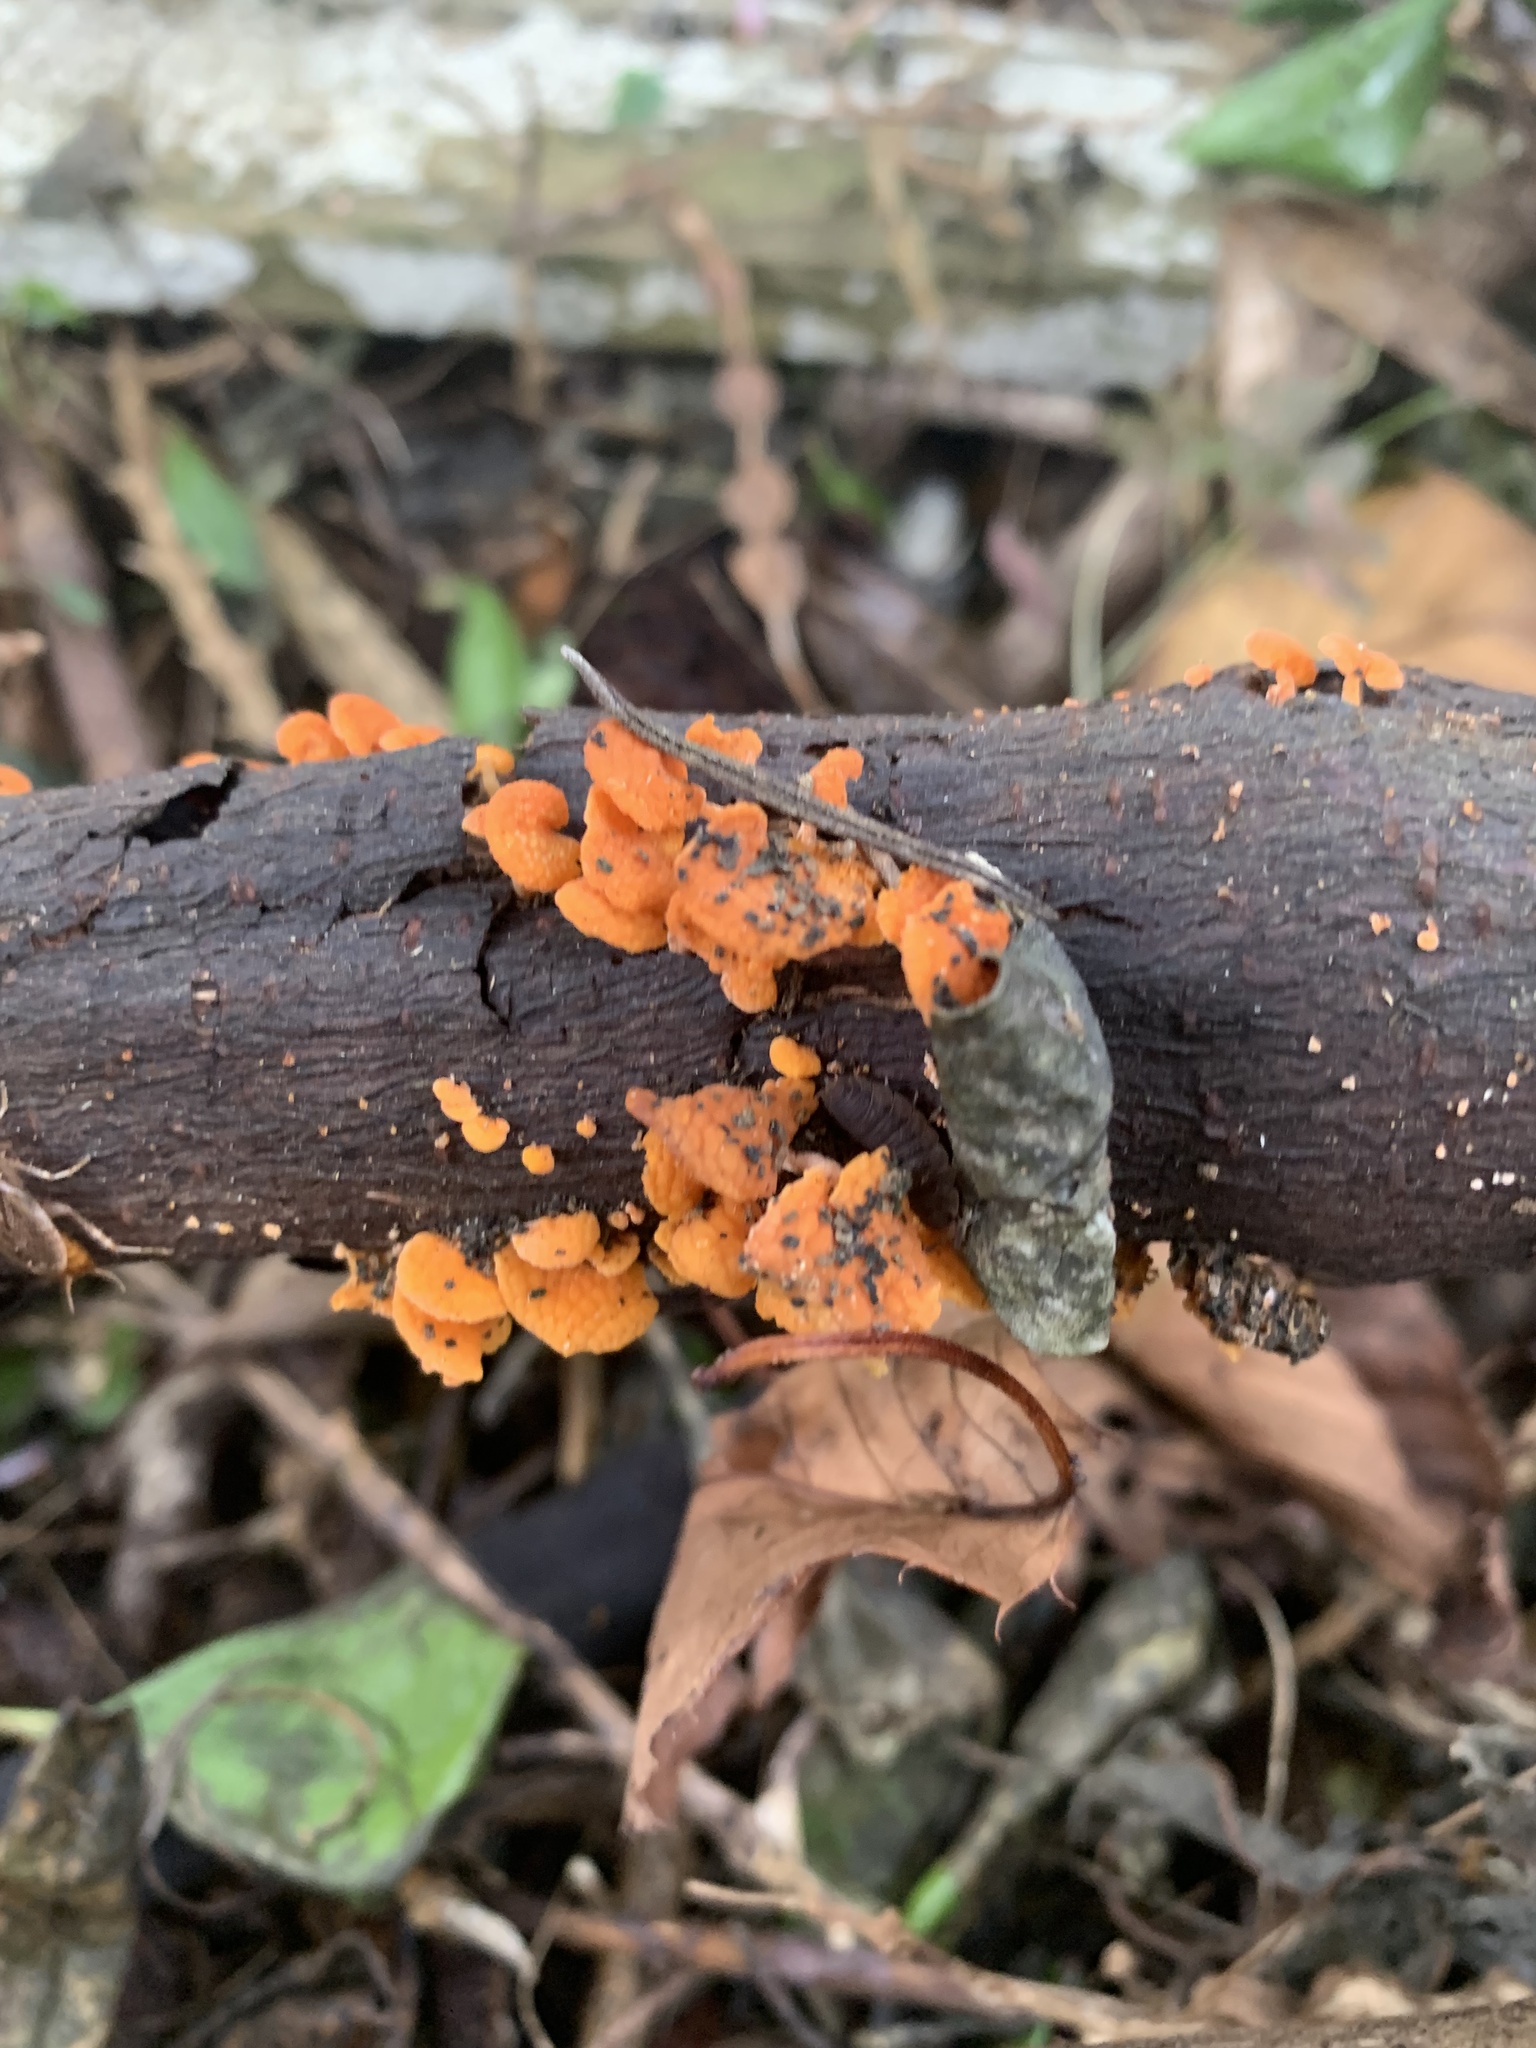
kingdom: Fungi
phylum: Basidiomycota
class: Agaricomycetes
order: Agaricales
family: Mycenaceae
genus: Favolaschia
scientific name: Favolaschia claudopus
